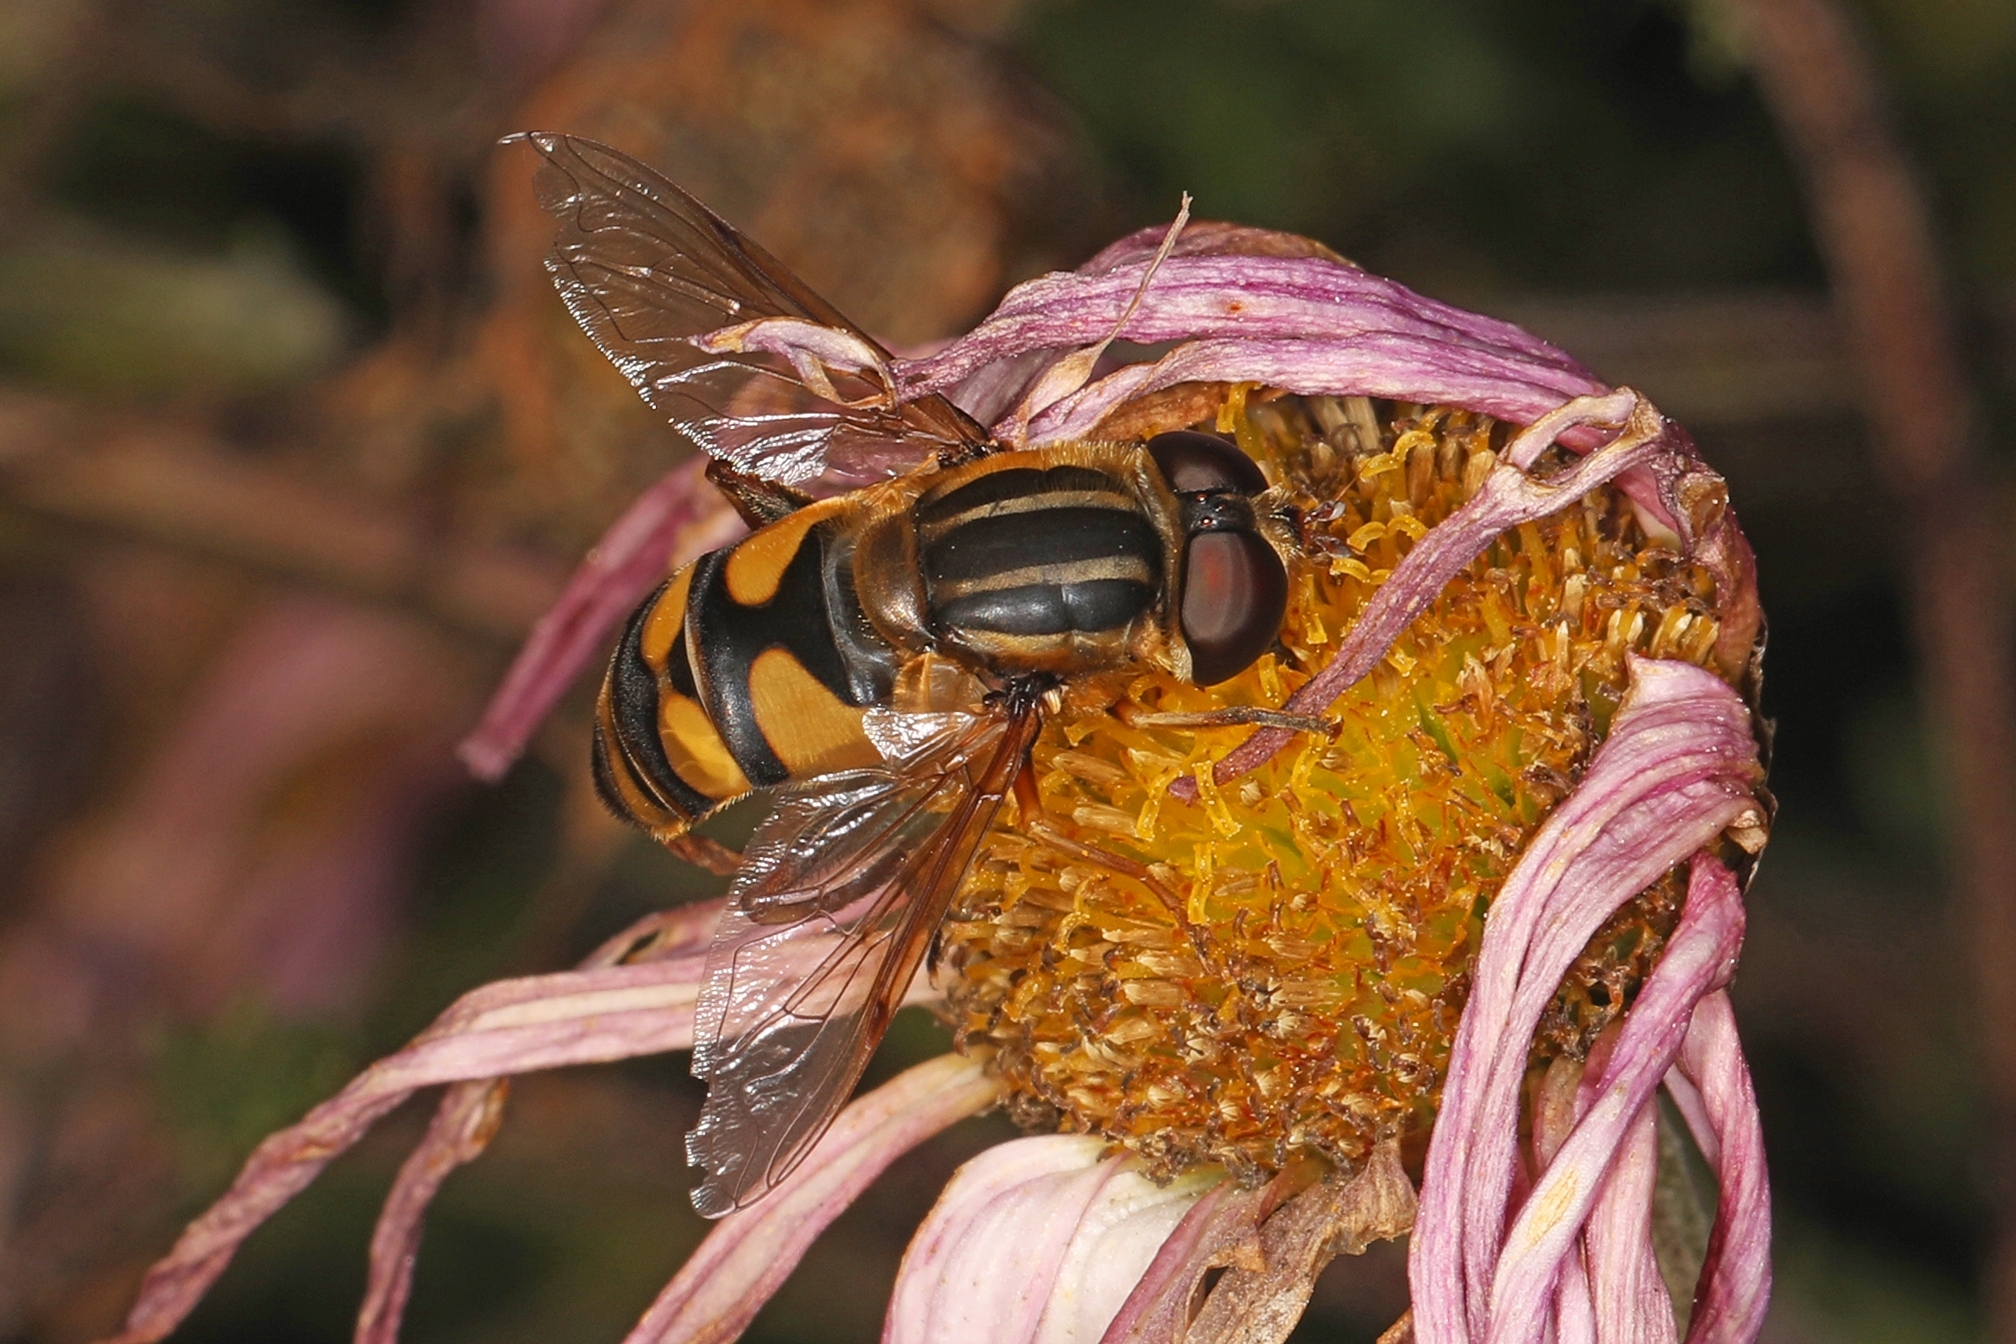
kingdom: Animalia
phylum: Arthropoda
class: Insecta
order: Diptera
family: Syrphidae
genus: Helophilus
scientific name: Helophilus fasciatus
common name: Narrow-headed marsh fly
